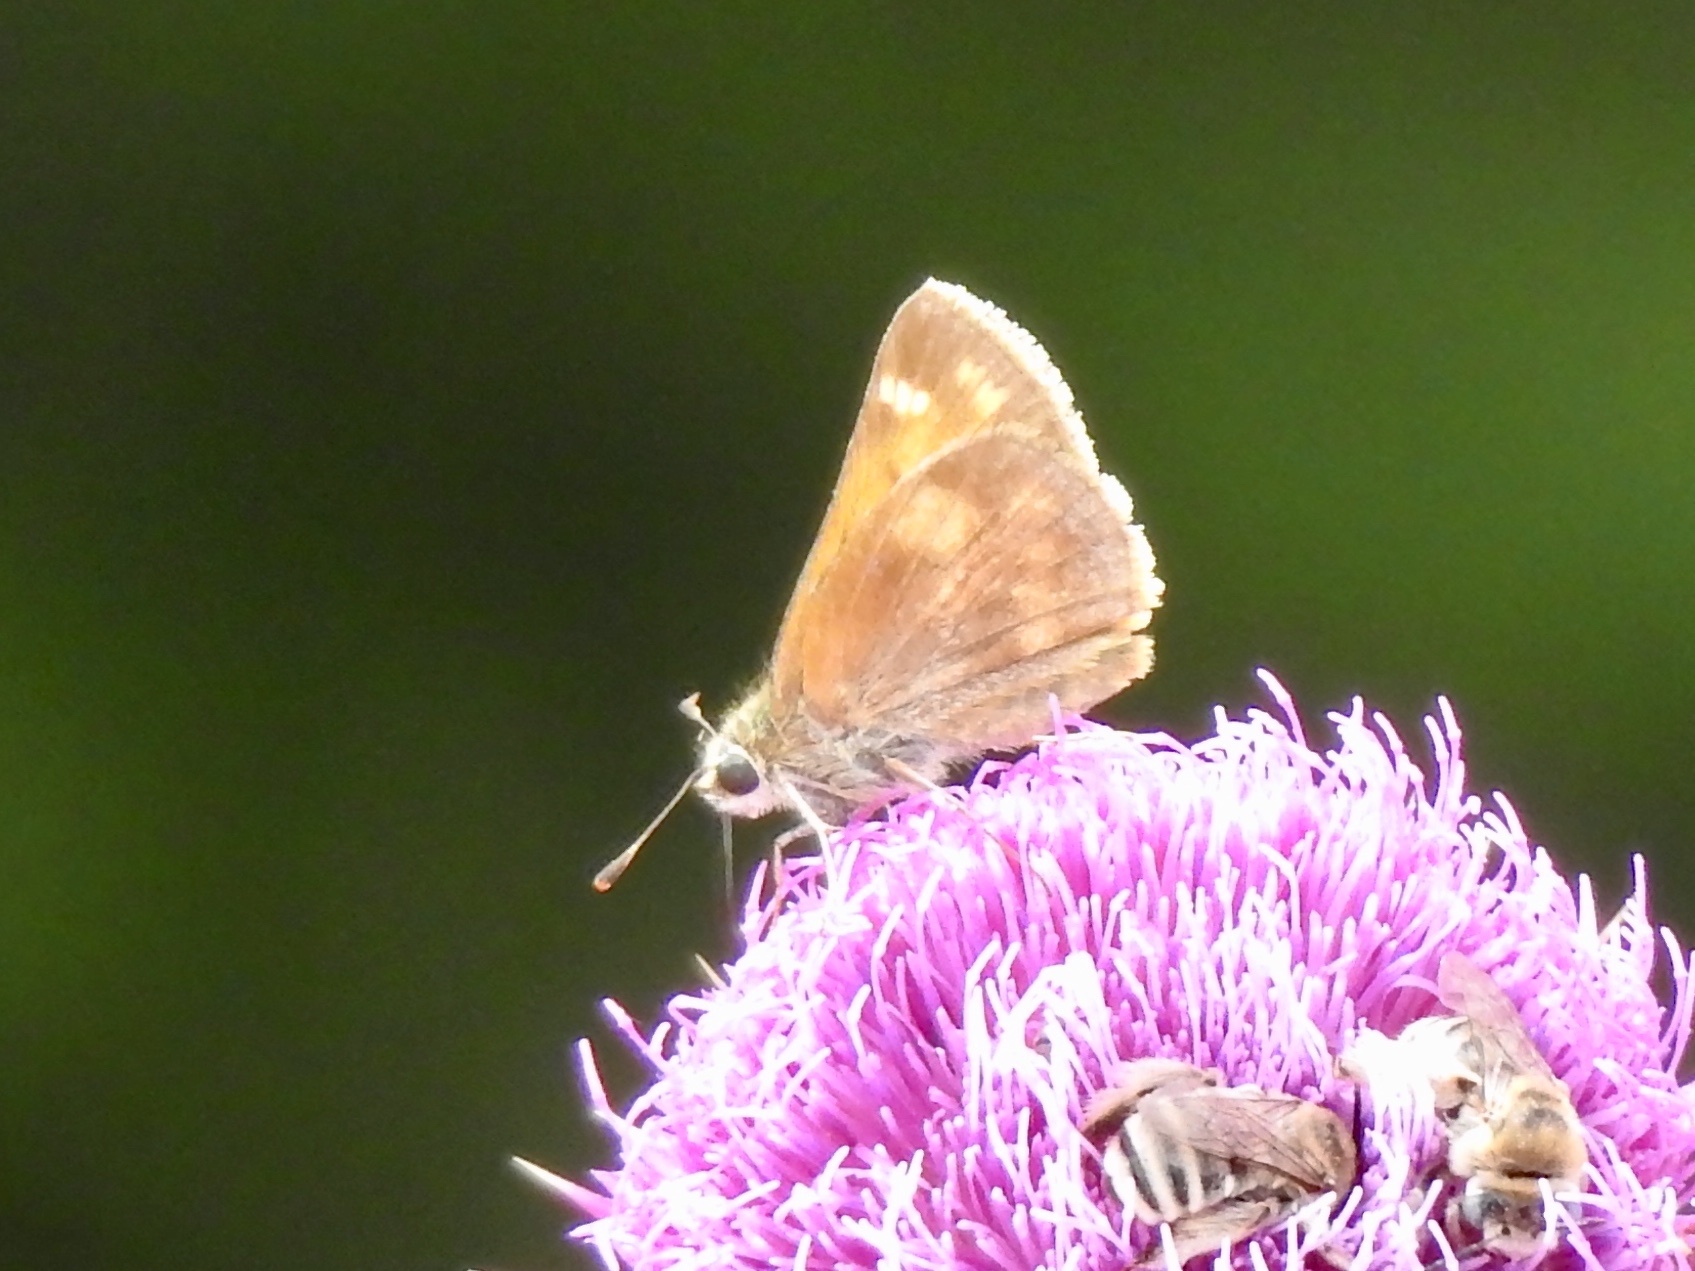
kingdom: Animalia
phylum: Arthropoda
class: Insecta
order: Lepidoptera
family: Hesperiidae
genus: Lon
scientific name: Lon taxiles
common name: Taxiles skipper
